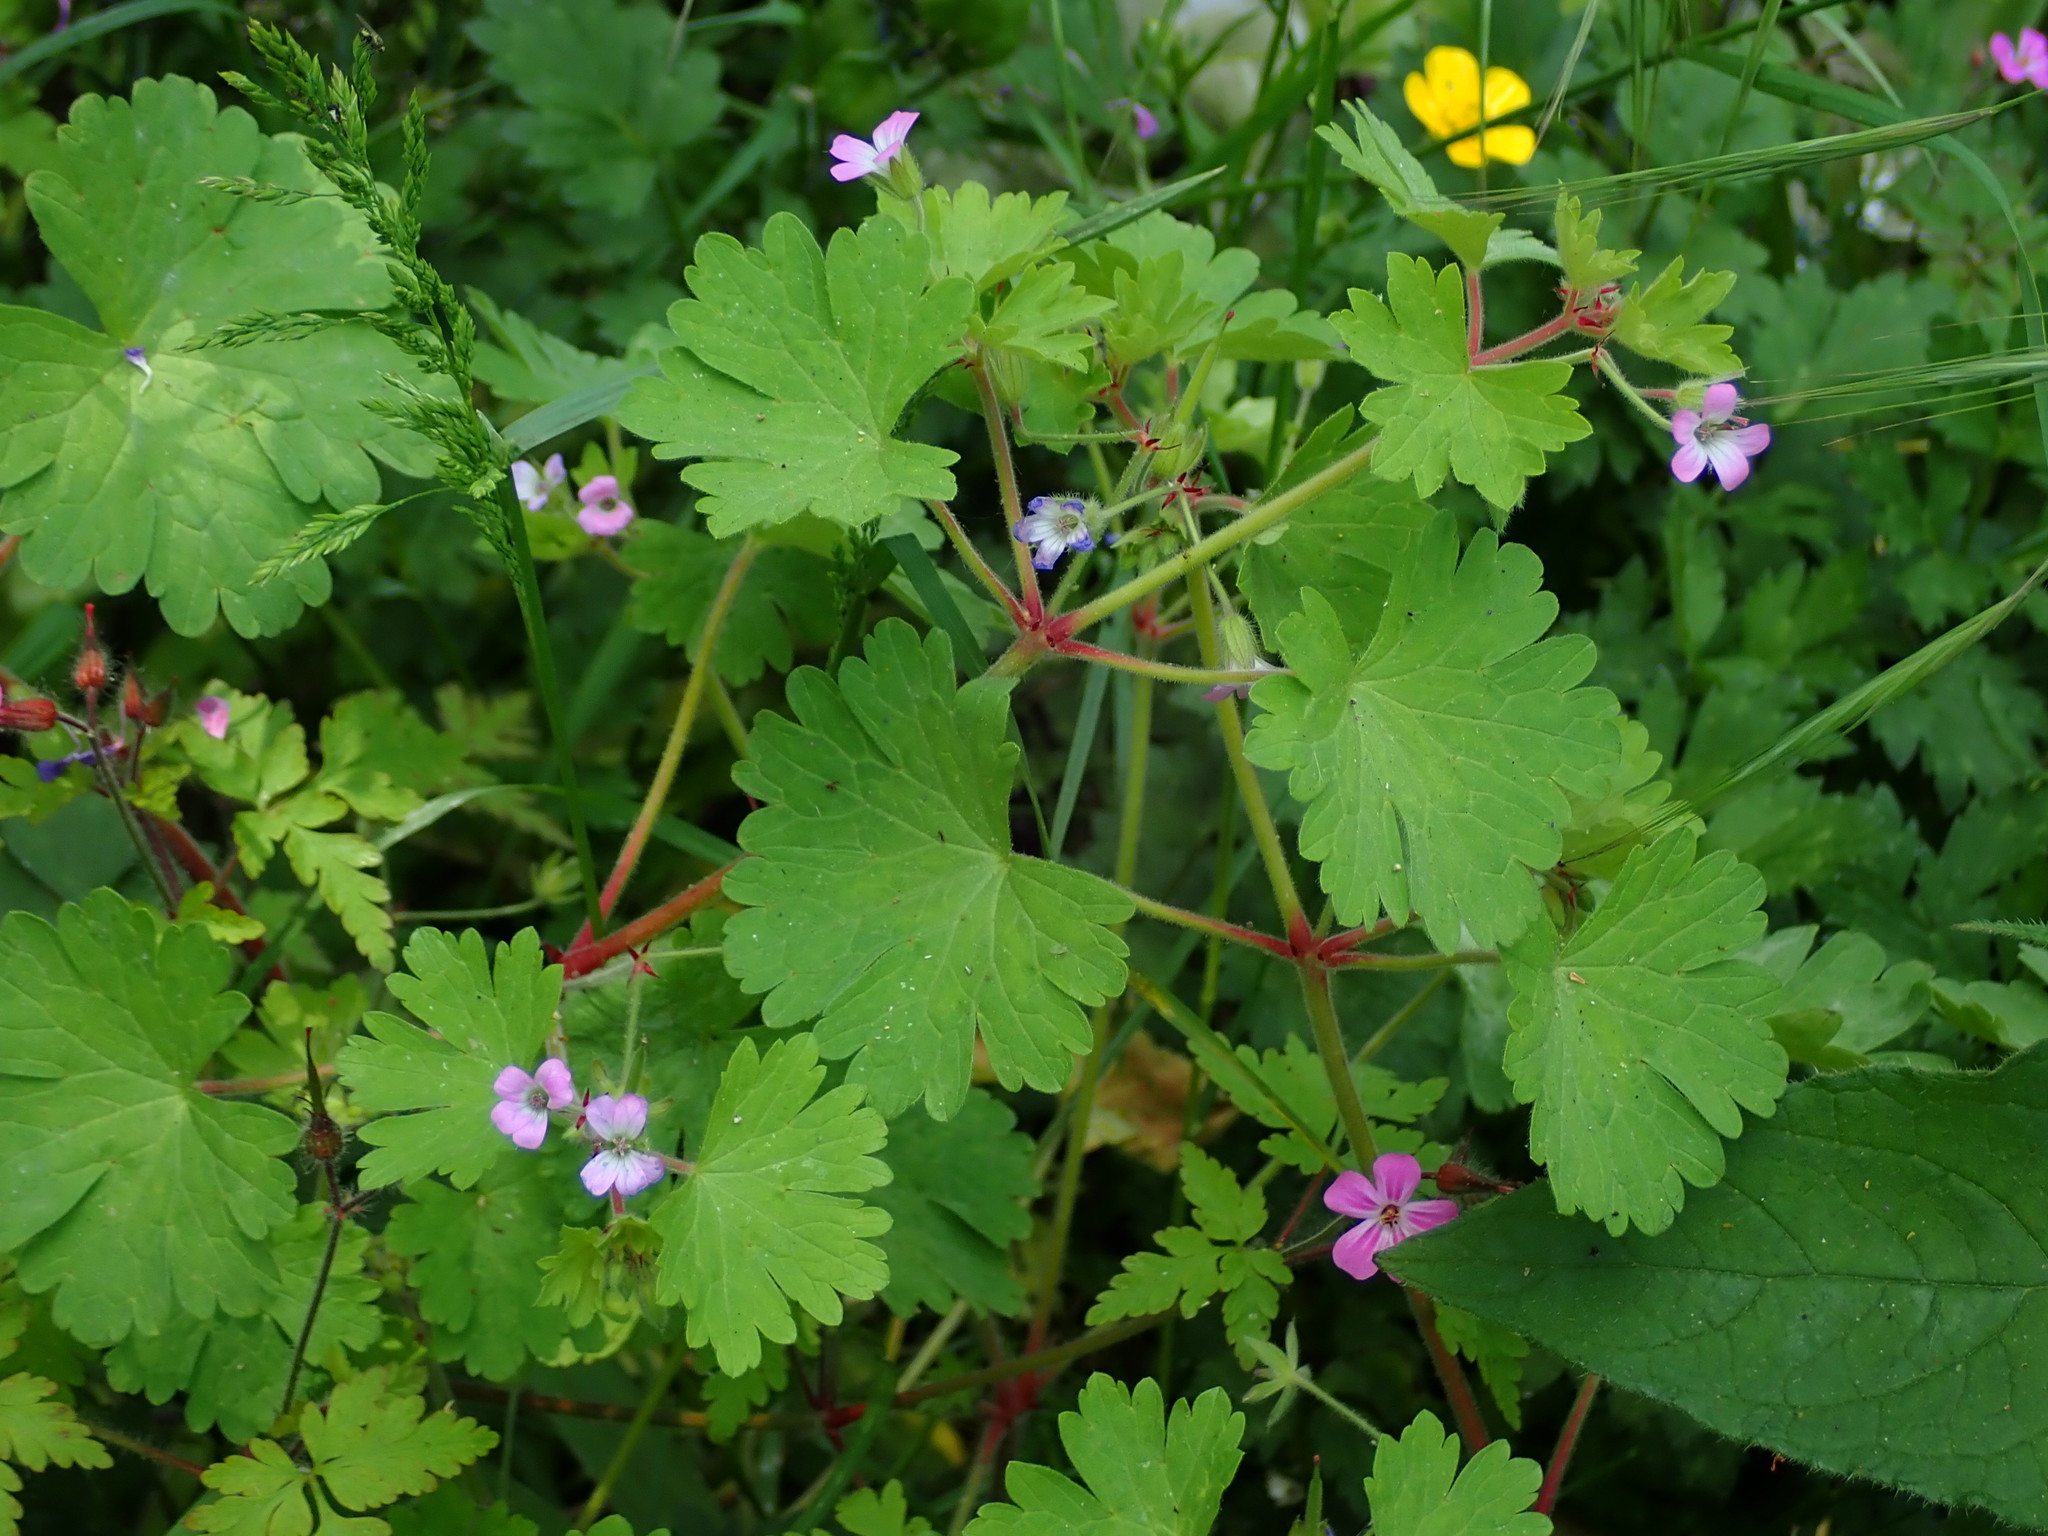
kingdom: Plantae
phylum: Tracheophyta
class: Magnoliopsida
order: Geraniales
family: Geraniaceae
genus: Geranium
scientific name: Geranium rotundifolium
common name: Round-leaved crane's-bill
